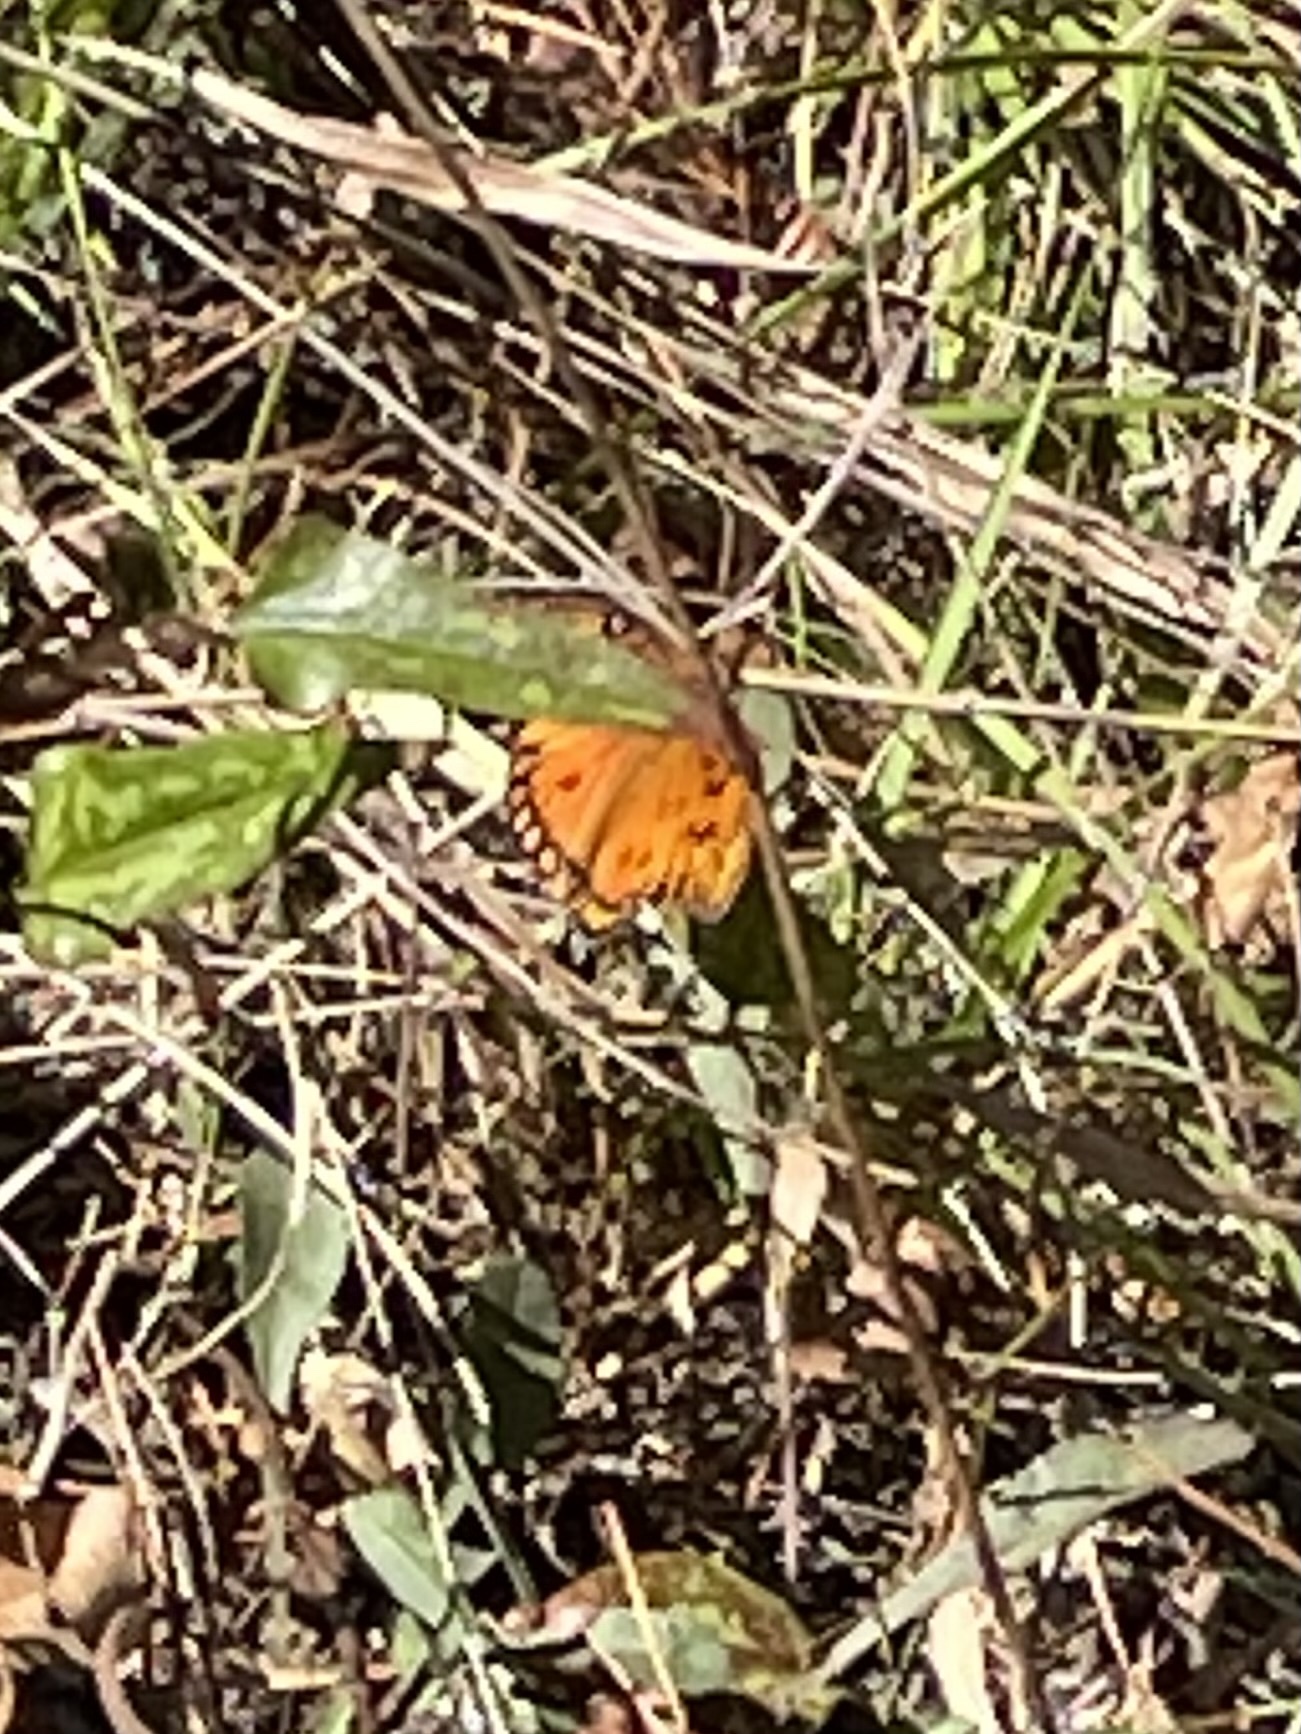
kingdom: Animalia
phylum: Arthropoda
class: Insecta
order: Lepidoptera
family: Nymphalidae
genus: Dione
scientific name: Dione vanillae
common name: Gulf fritillary
